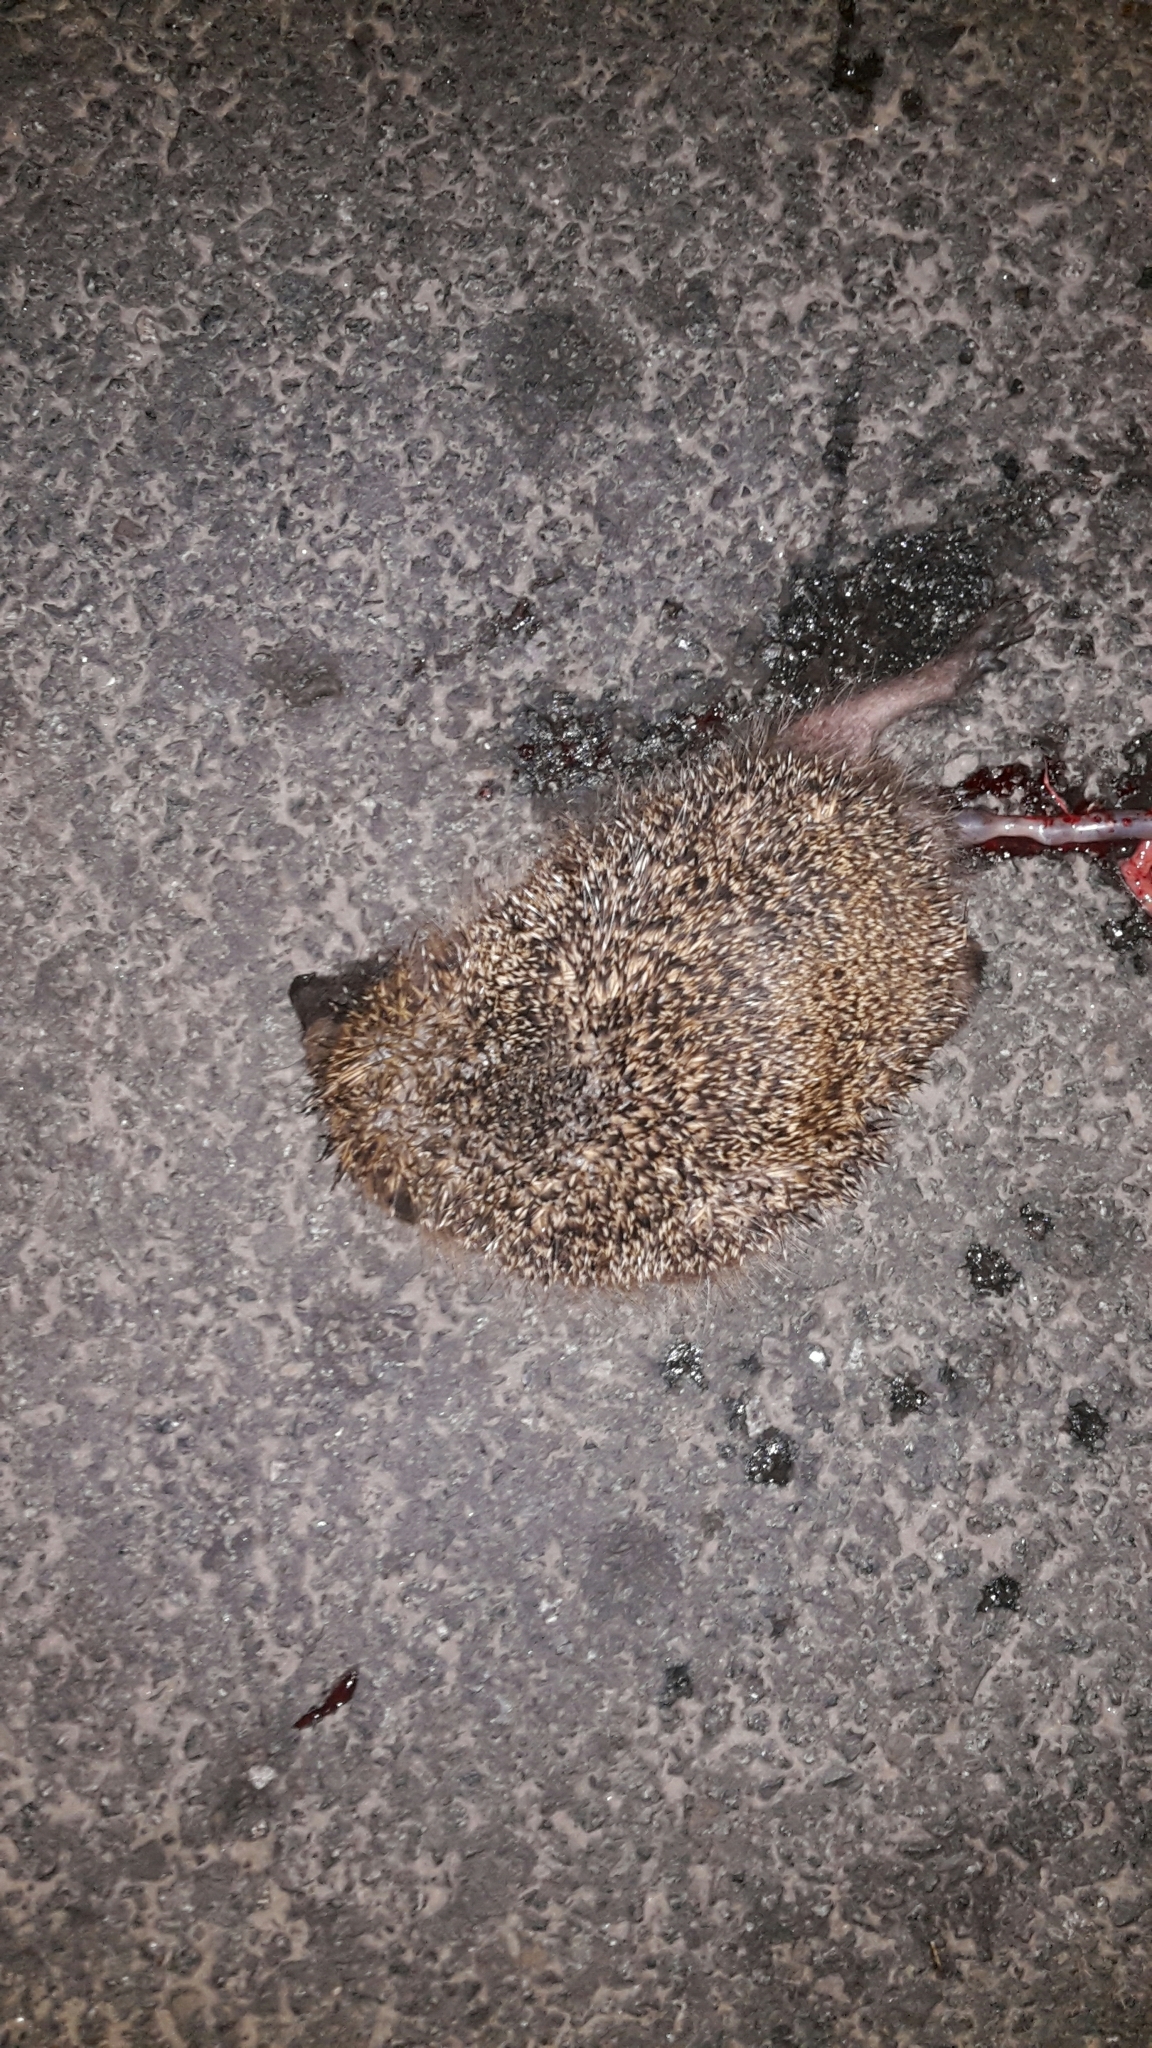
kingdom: Animalia
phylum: Chordata
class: Mammalia
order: Erinaceomorpha
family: Erinaceidae
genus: Erinaceus
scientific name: Erinaceus europaeus
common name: West european hedgehog
